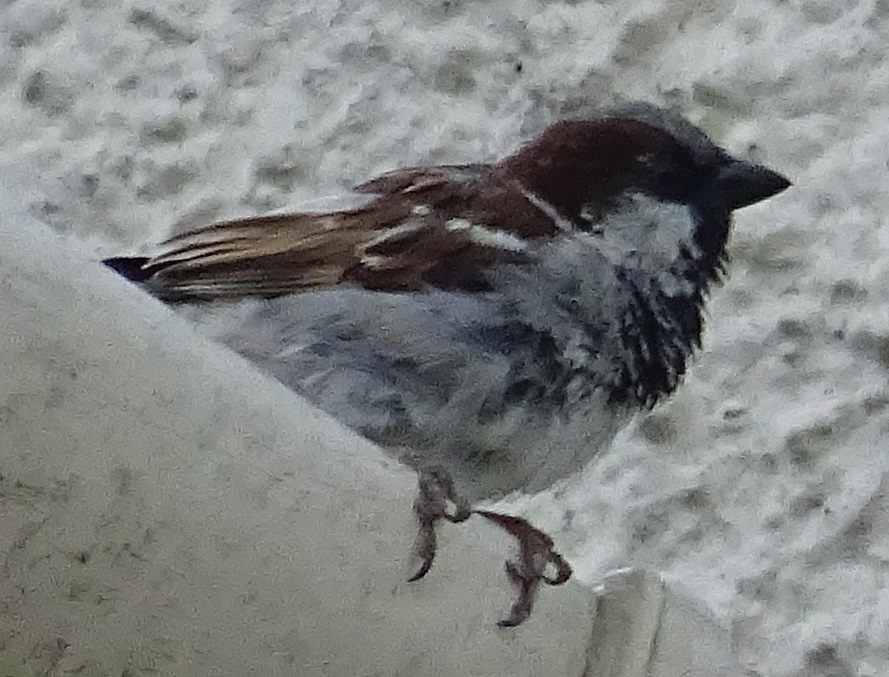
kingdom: Animalia
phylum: Chordata
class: Aves
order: Passeriformes
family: Passeridae
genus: Passer
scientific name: Passer domesticus
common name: House sparrow
